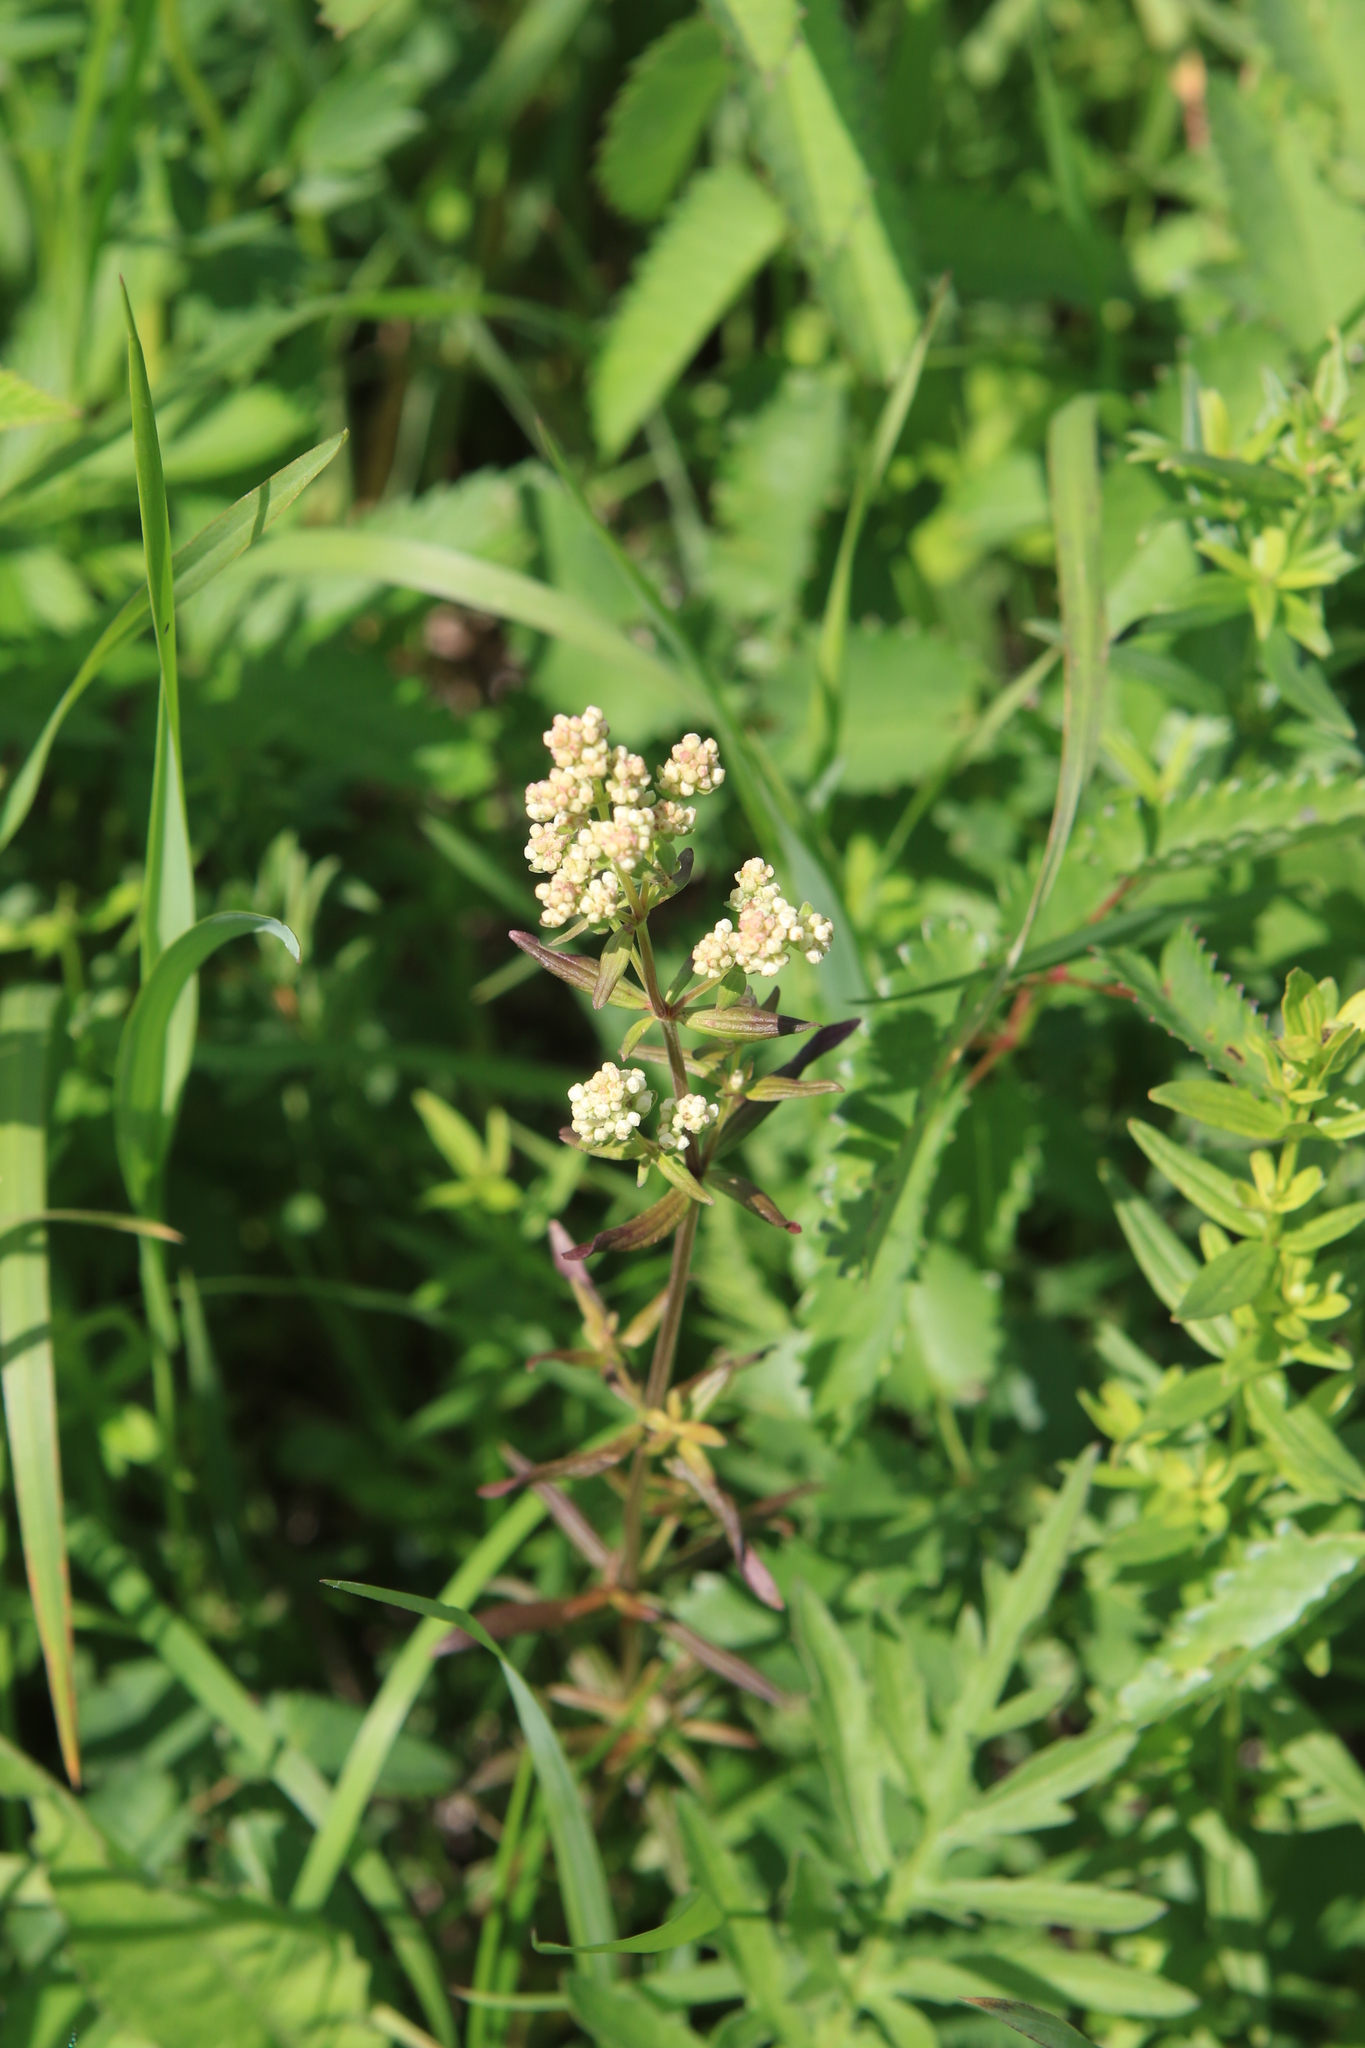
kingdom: Plantae
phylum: Tracheophyta
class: Magnoliopsida
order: Gentianales
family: Rubiaceae
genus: Galium
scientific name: Galium boreale
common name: Northern bedstraw
